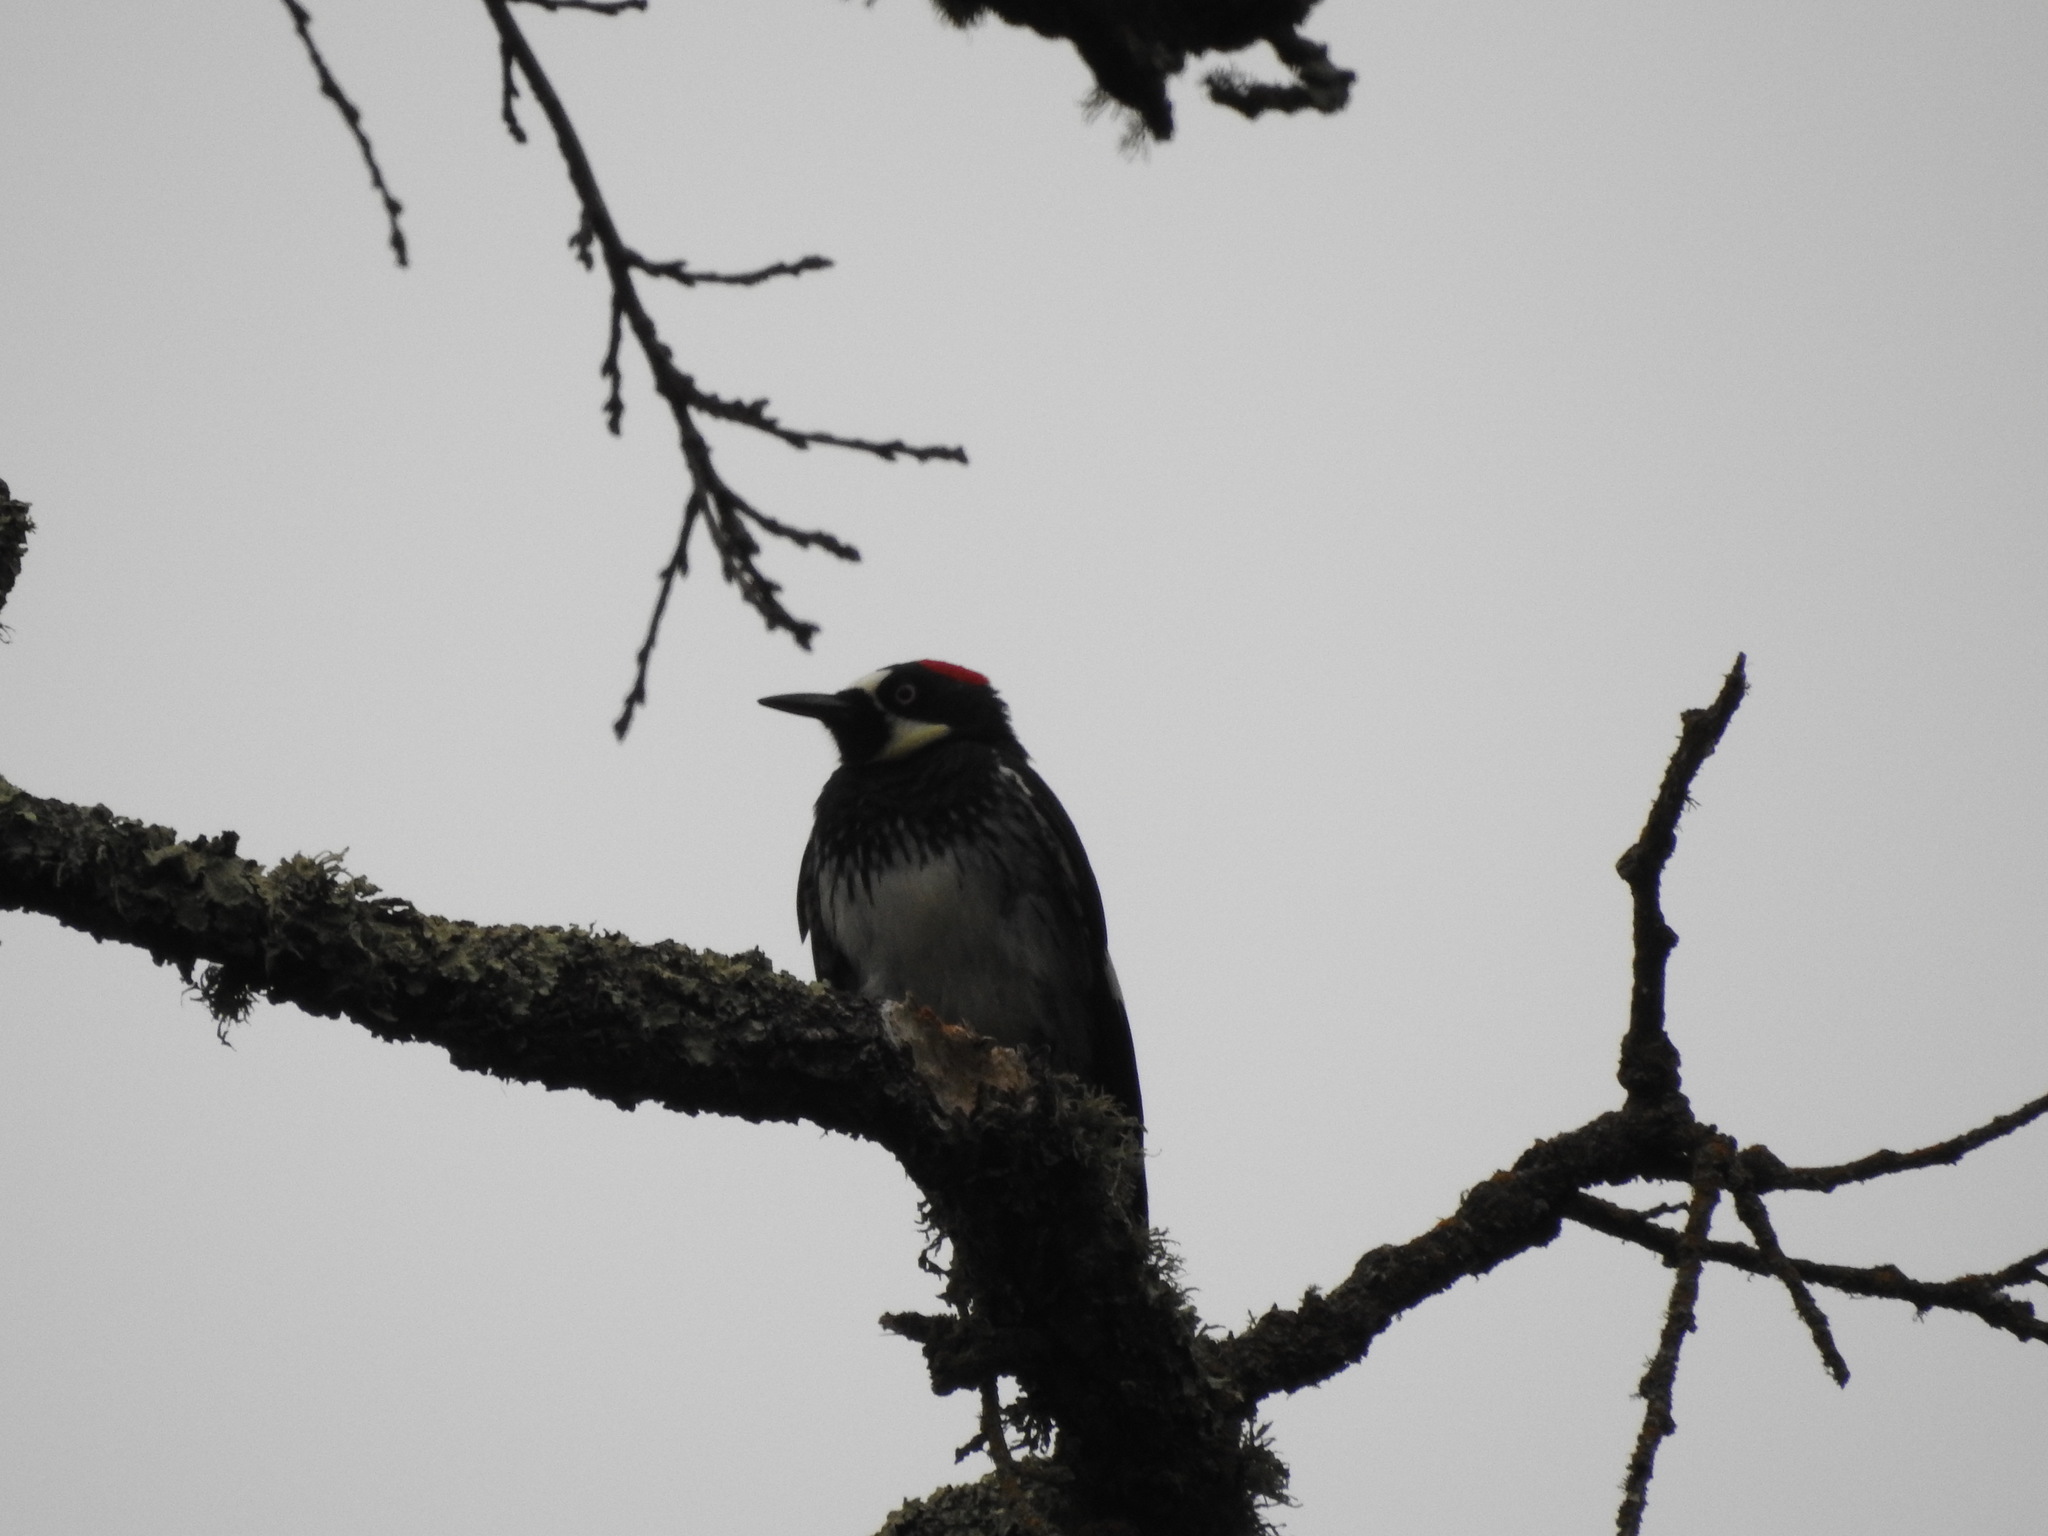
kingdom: Animalia
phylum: Chordata
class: Aves
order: Piciformes
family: Picidae
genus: Melanerpes
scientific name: Melanerpes formicivorus
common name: Acorn woodpecker
